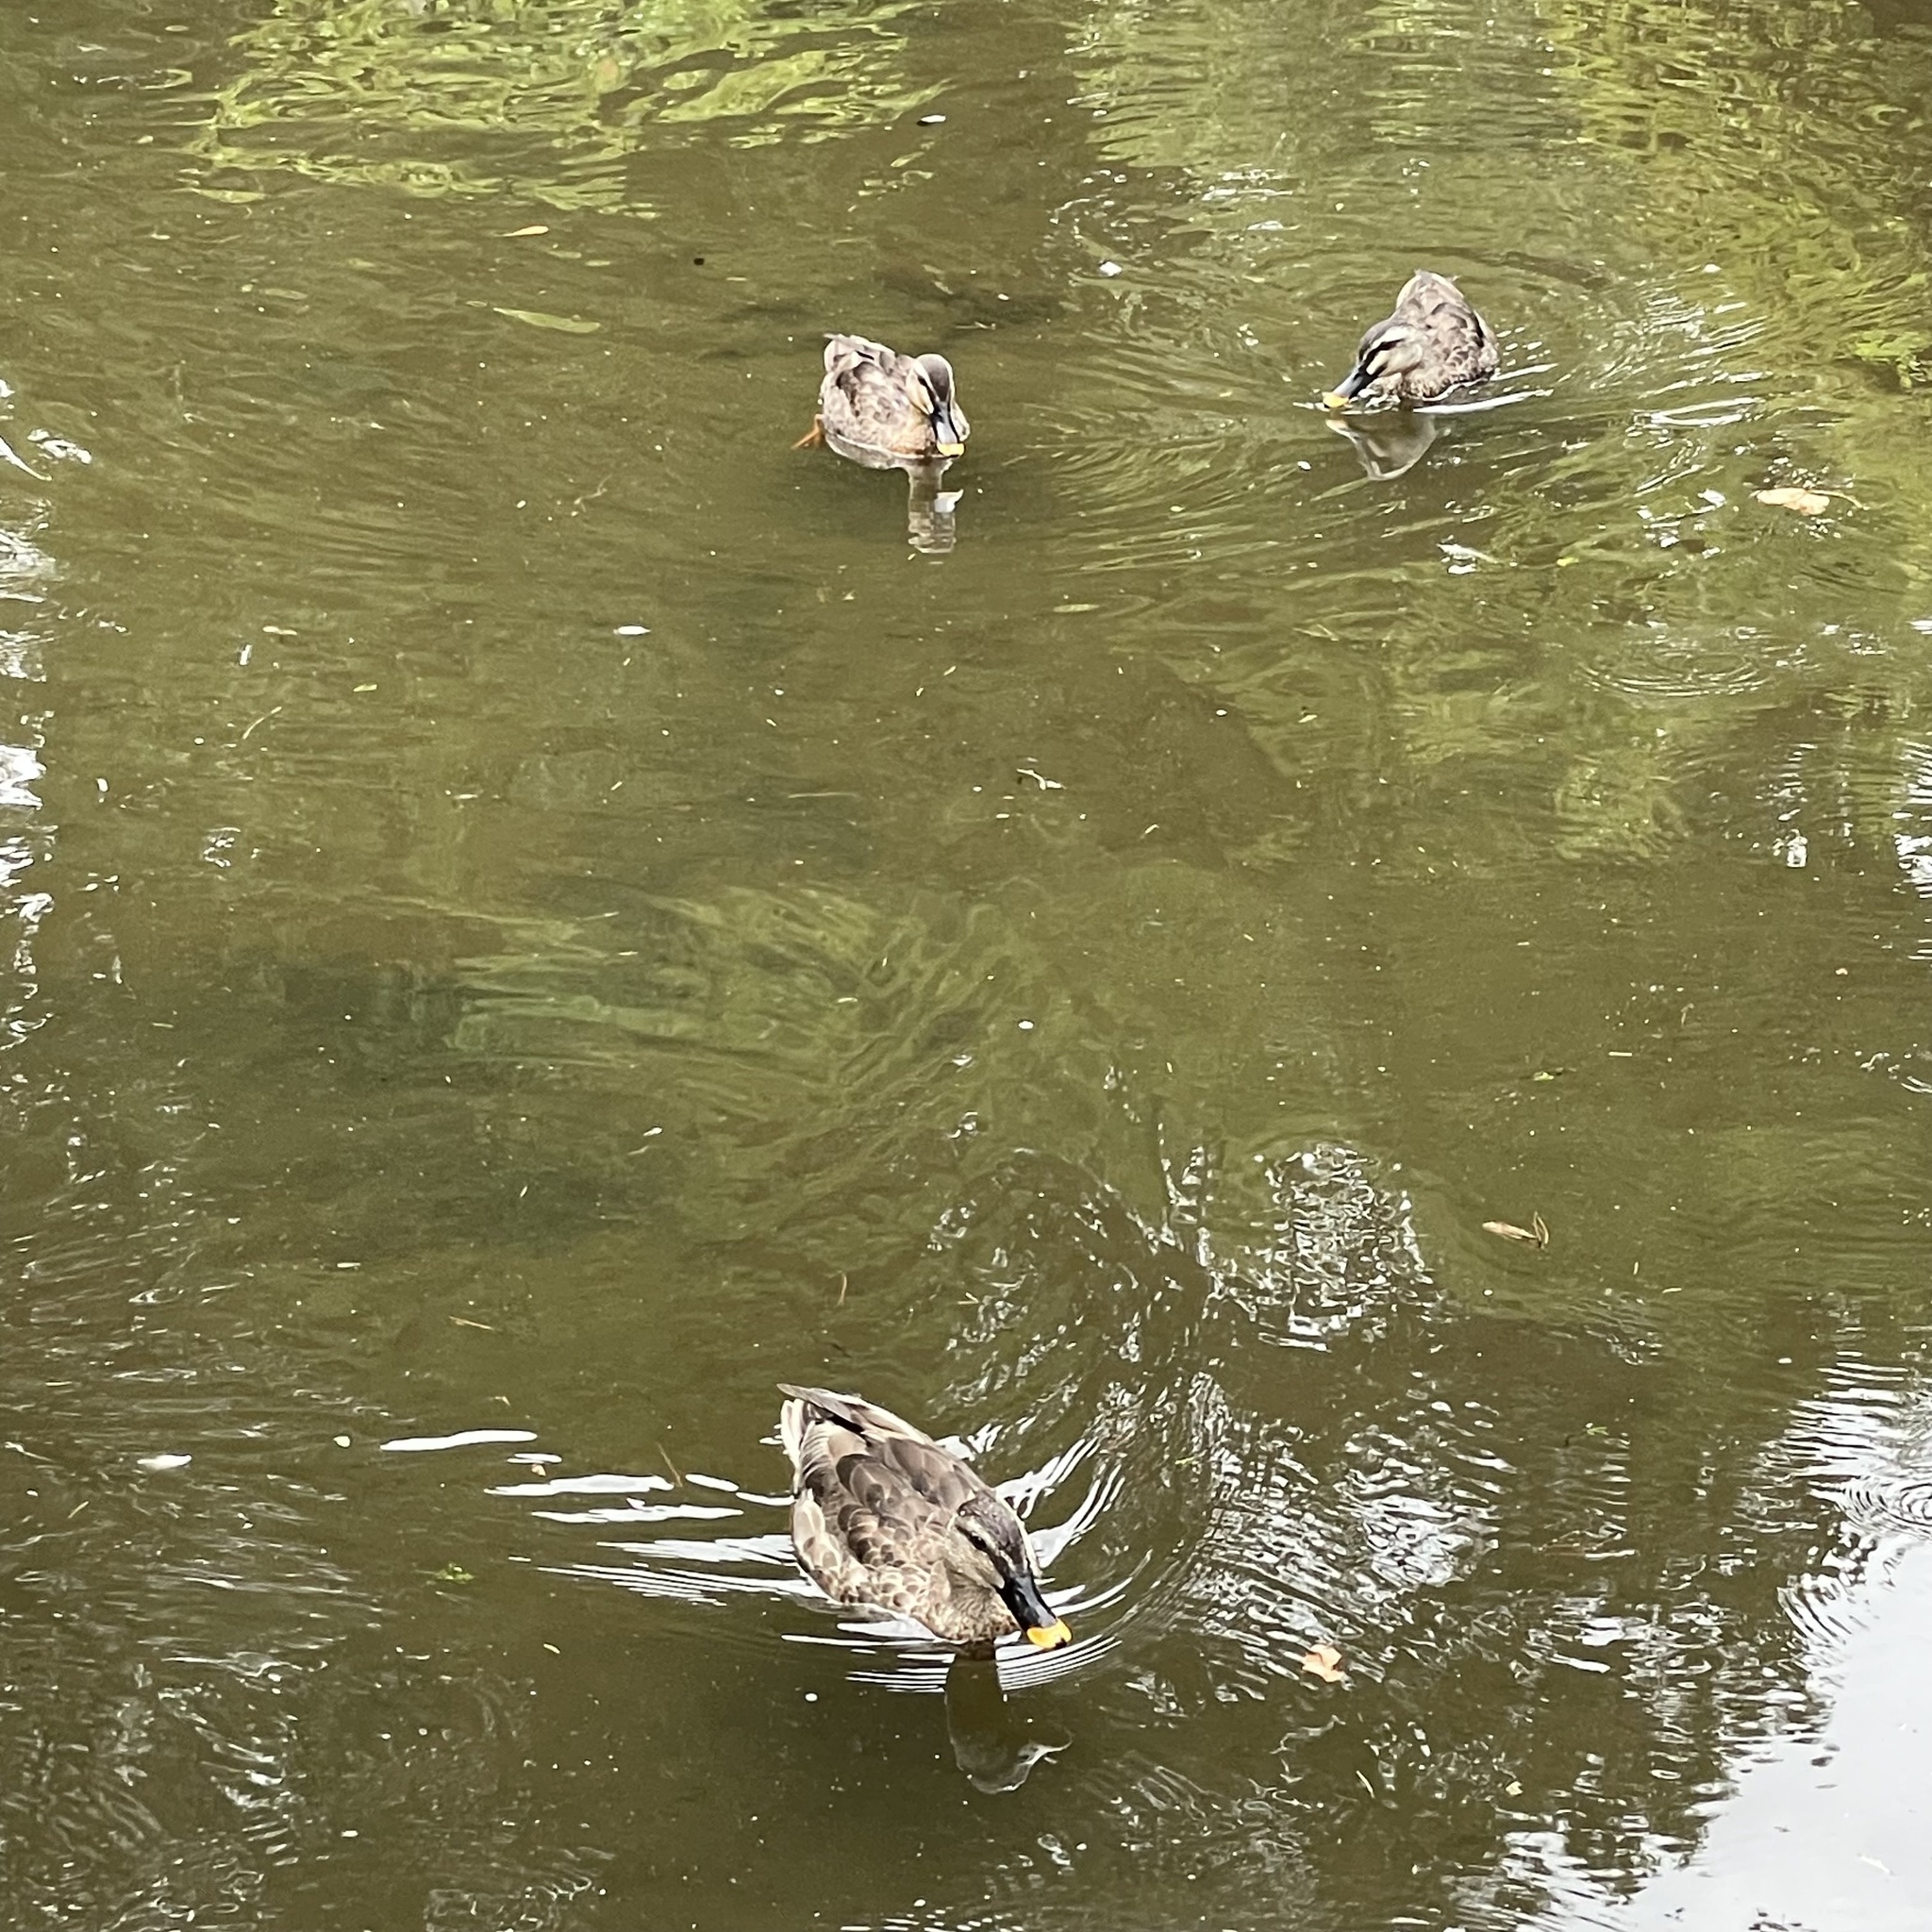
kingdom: Animalia
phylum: Chordata
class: Aves
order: Anseriformes
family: Anatidae
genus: Anas
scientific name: Anas zonorhyncha
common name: Eastern spot-billed duck
